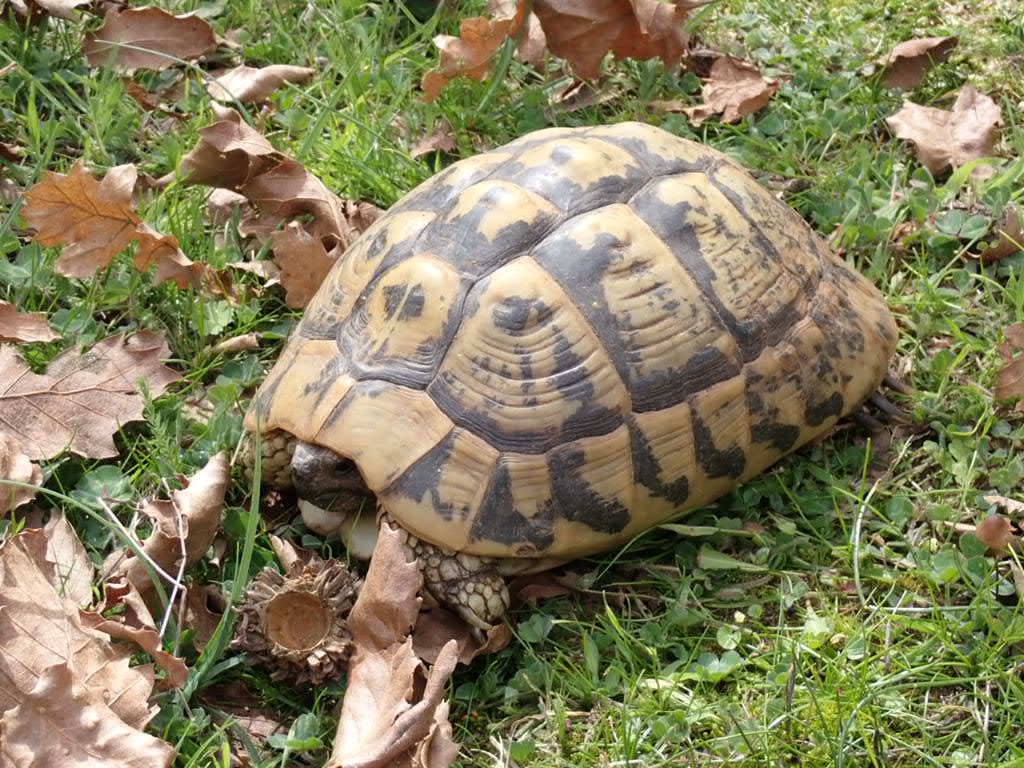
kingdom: Animalia
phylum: Chordata
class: Testudines
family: Testudinidae
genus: Testudo
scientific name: Testudo hermanni
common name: Hermann's tortoise
